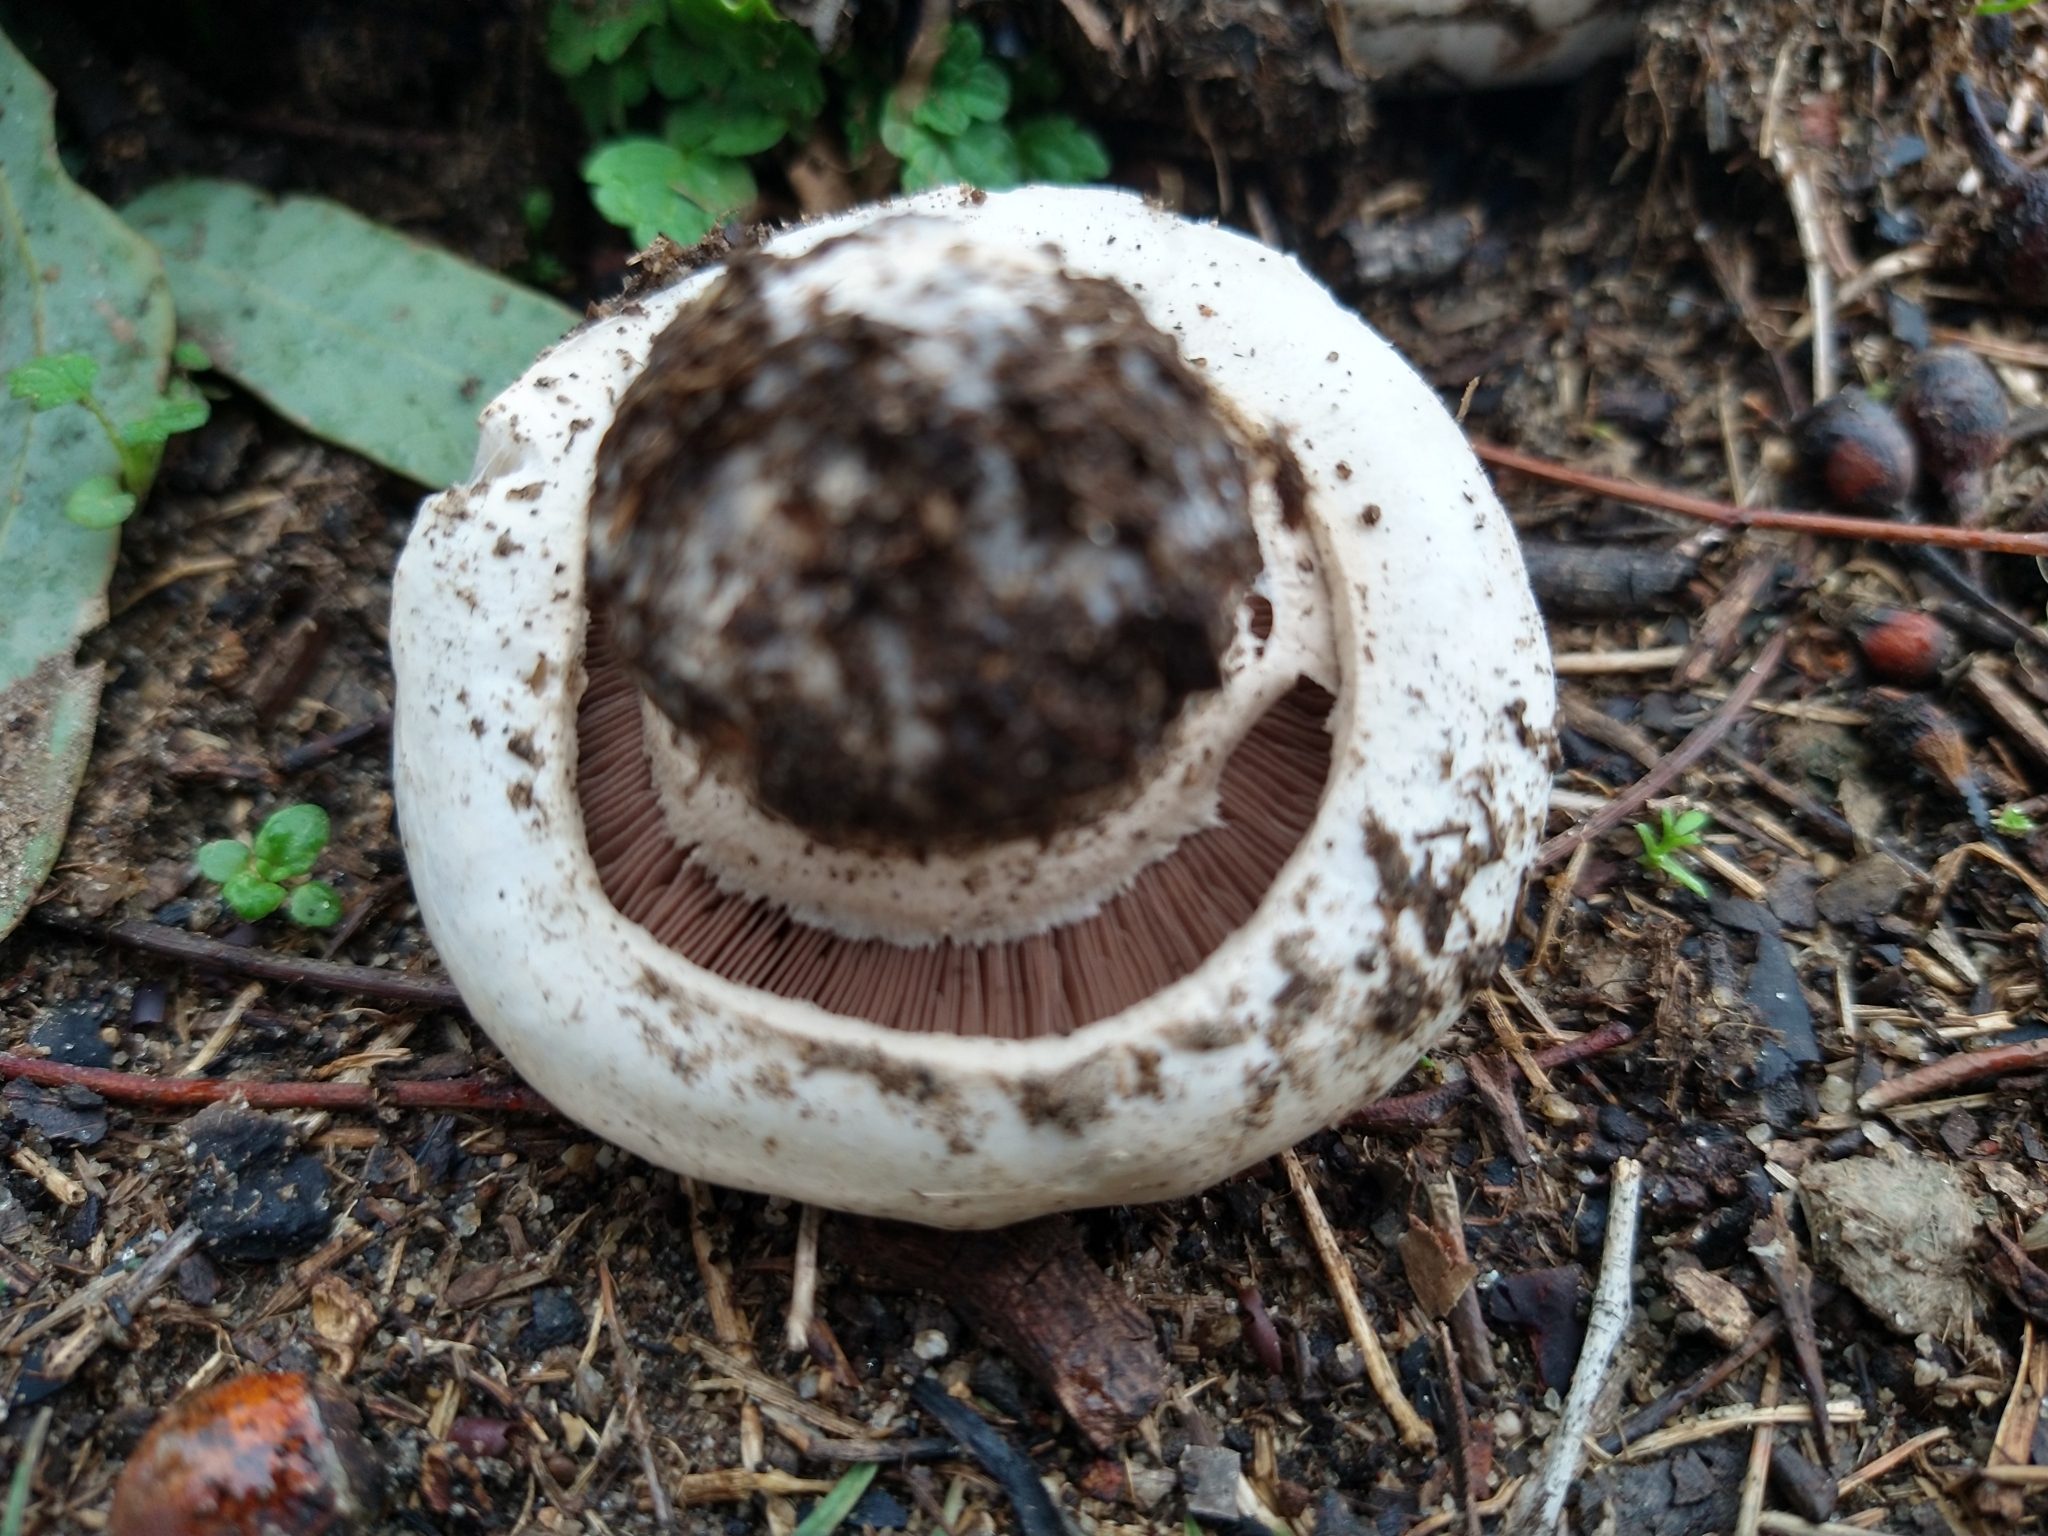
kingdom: Fungi
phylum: Basidiomycota
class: Agaricomycetes
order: Agaricales
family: Agaricaceae
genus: Agaricus
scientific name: Agaricus bitorquis
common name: Pavement mushroom
